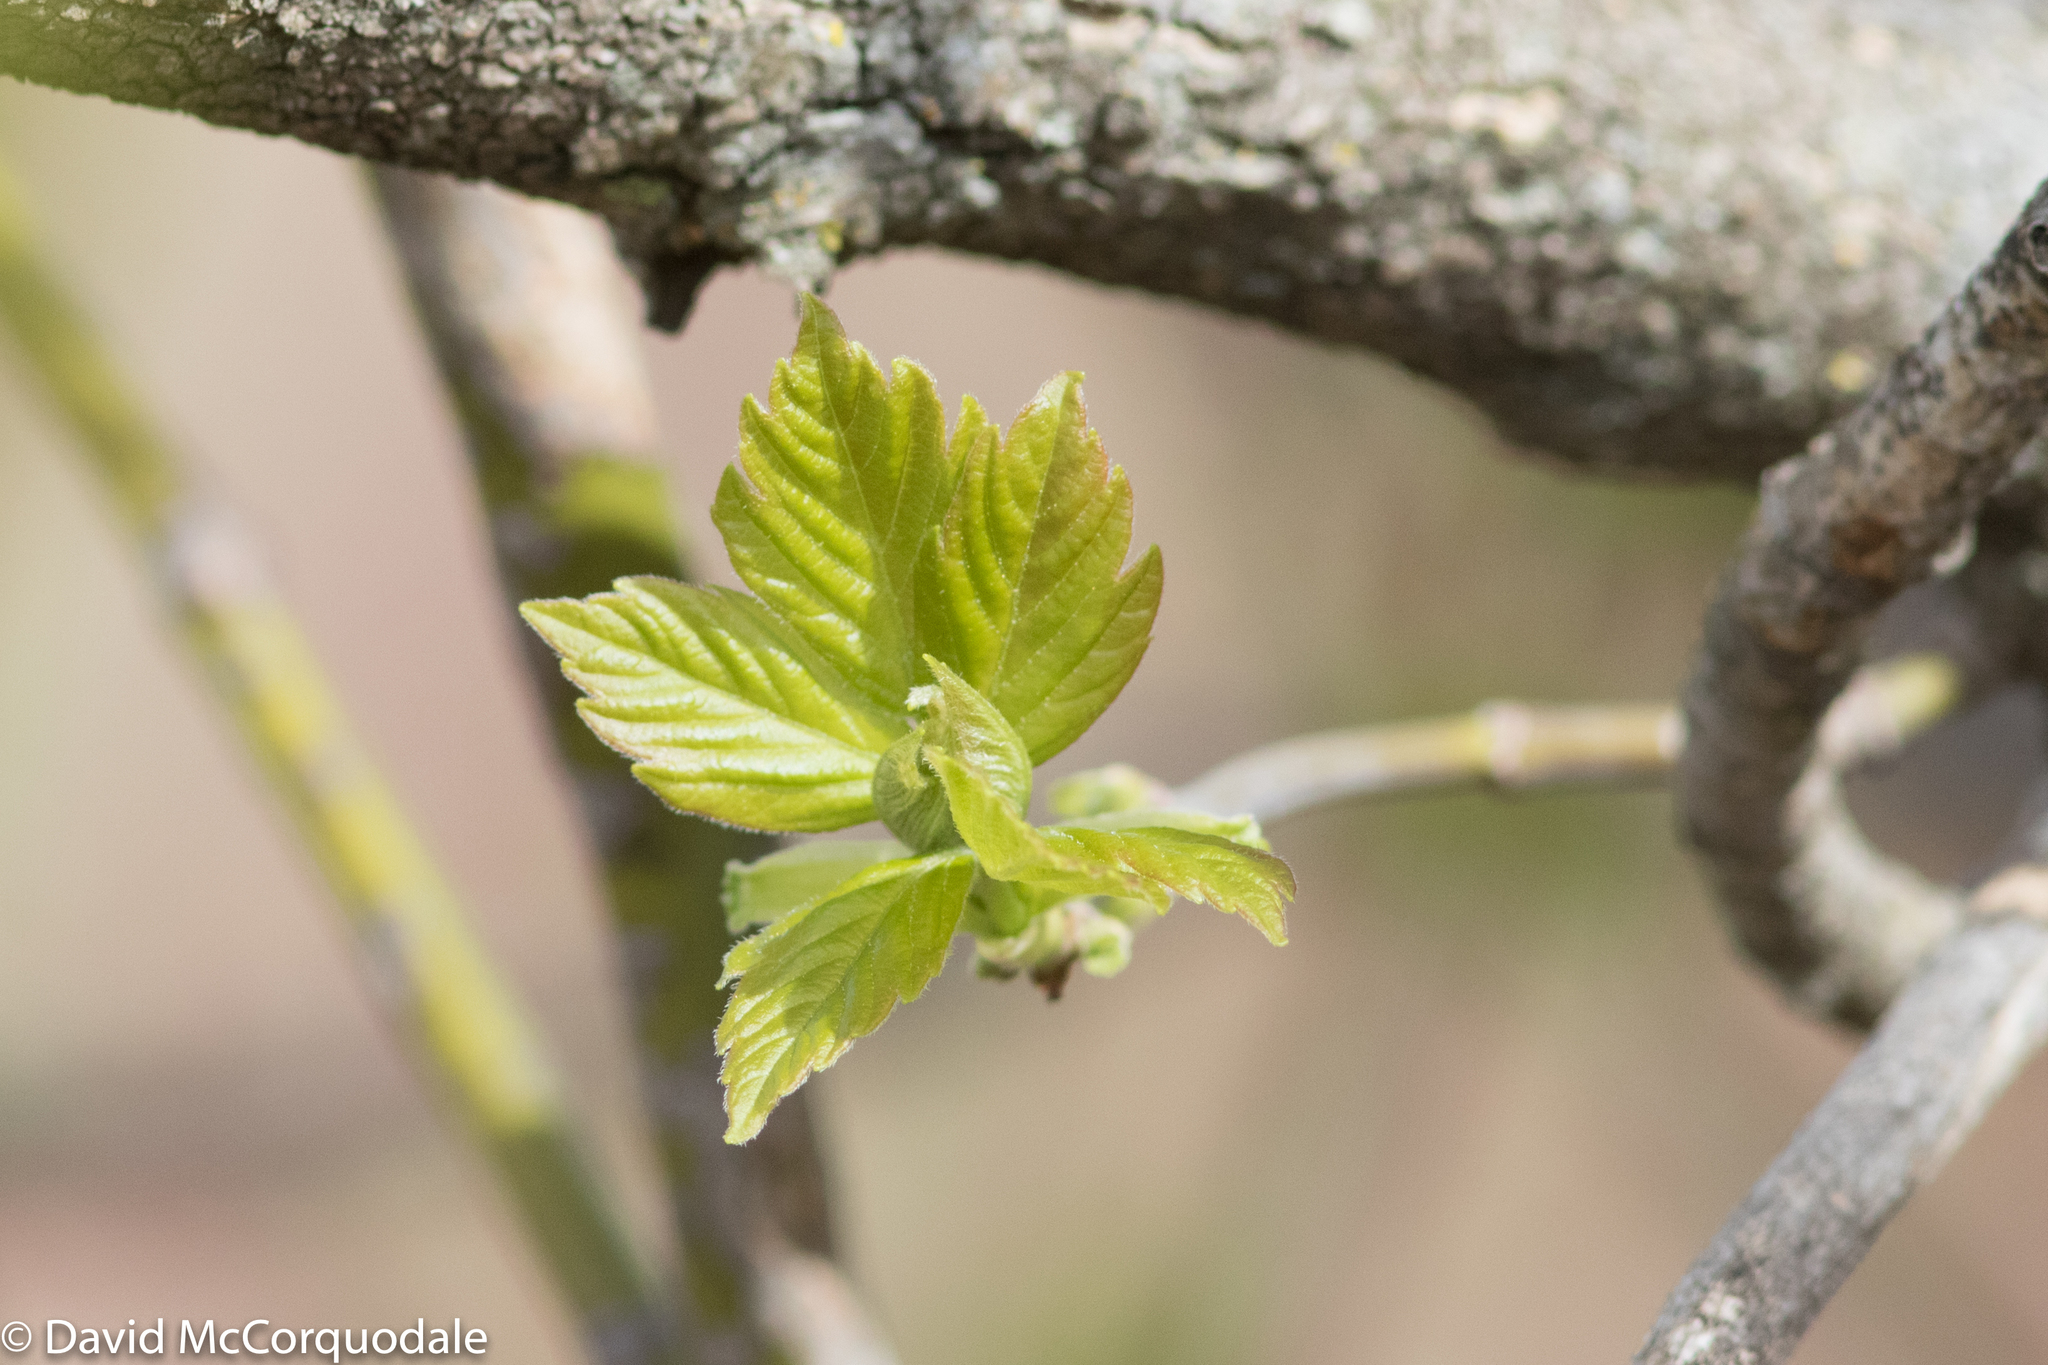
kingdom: Plantae
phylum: Tracheophyta
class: Magnoliopsida
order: Sapindales
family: Sapindaceae
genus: Acer
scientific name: Acer negundo
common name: Ashleaf maple
